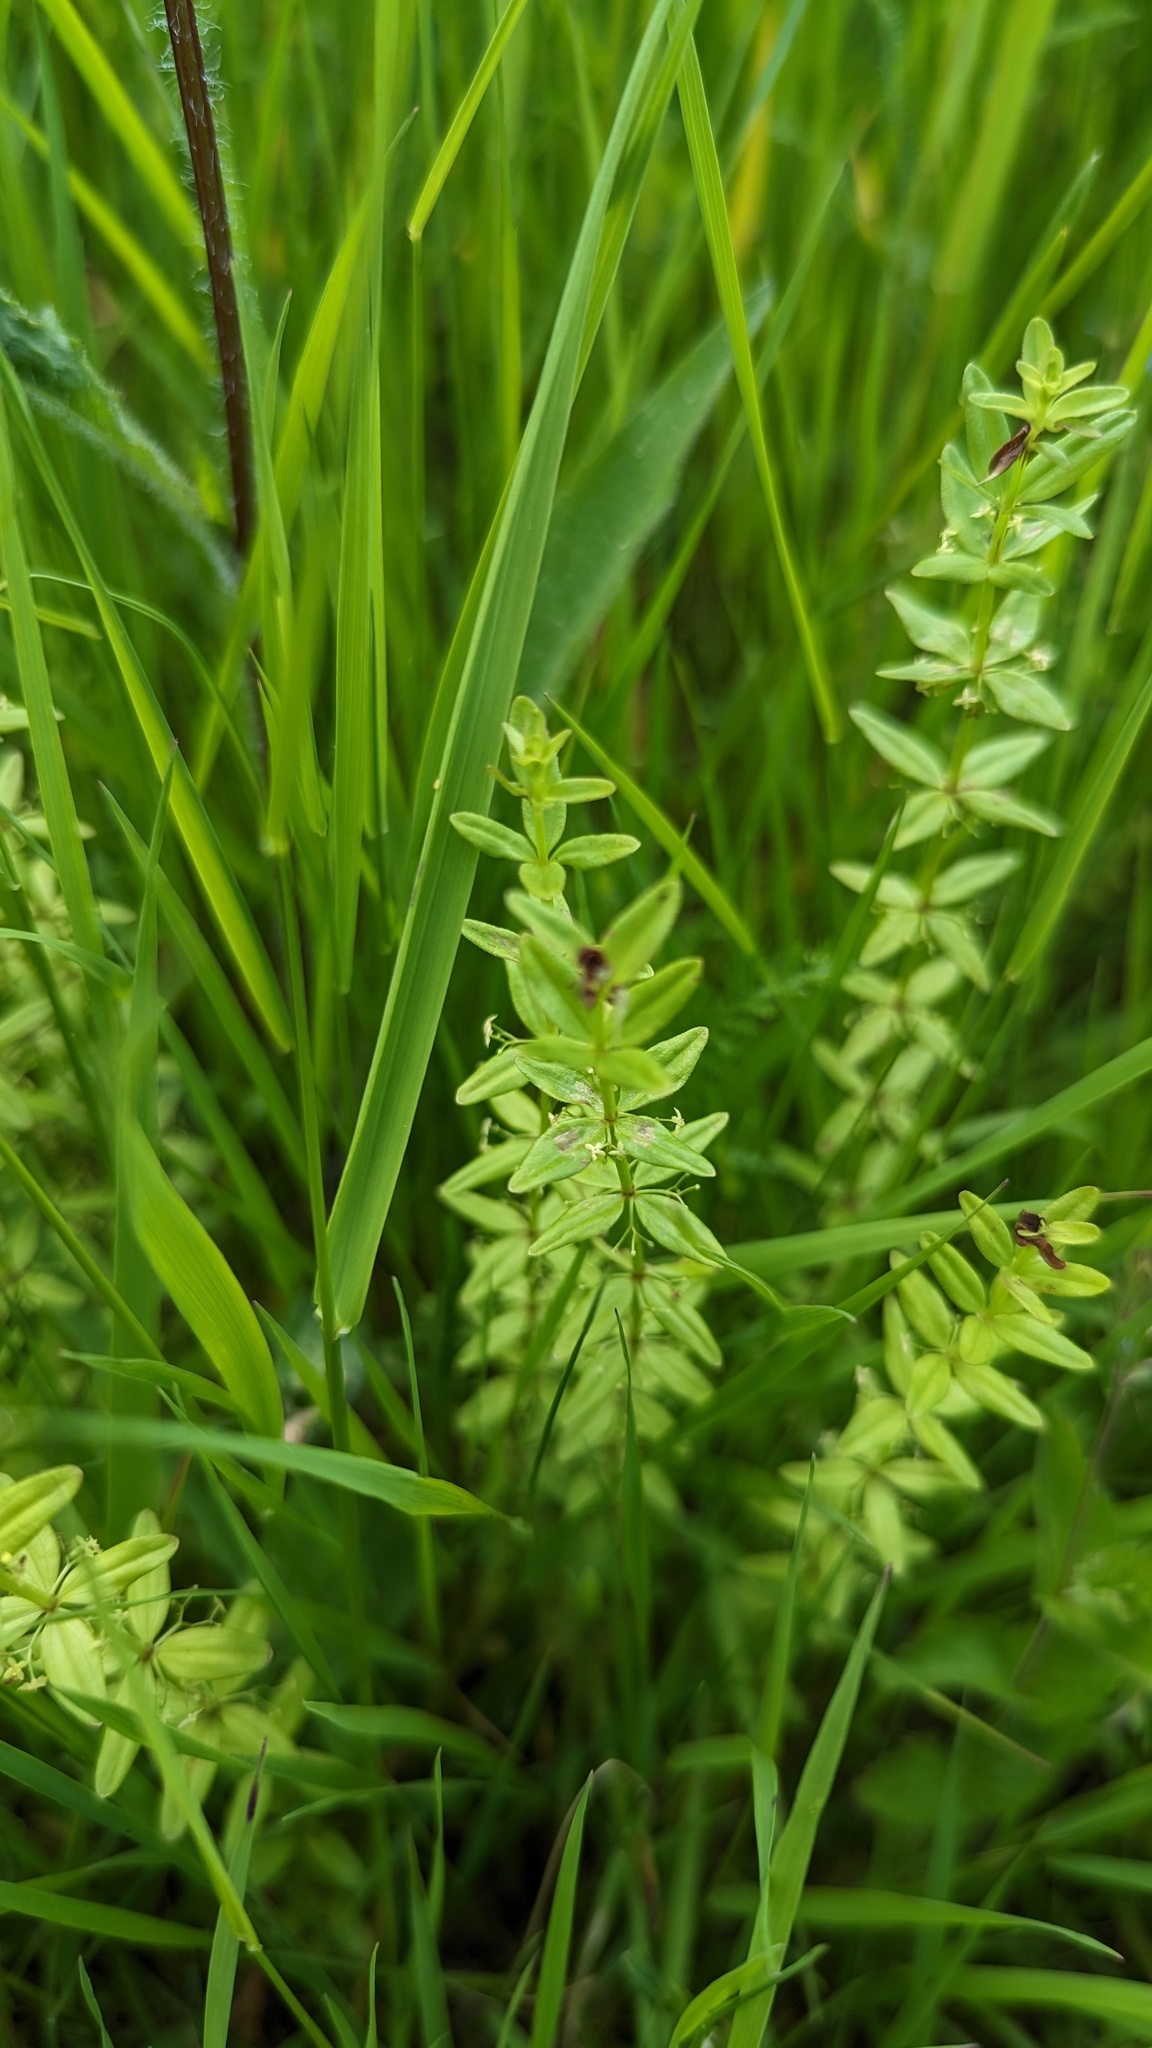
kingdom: Plantae
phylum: Tracheophyta
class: Magnoliopsida
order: Gentianales
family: Rubiaceae
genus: Cruciata
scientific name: Cruciata glabra
